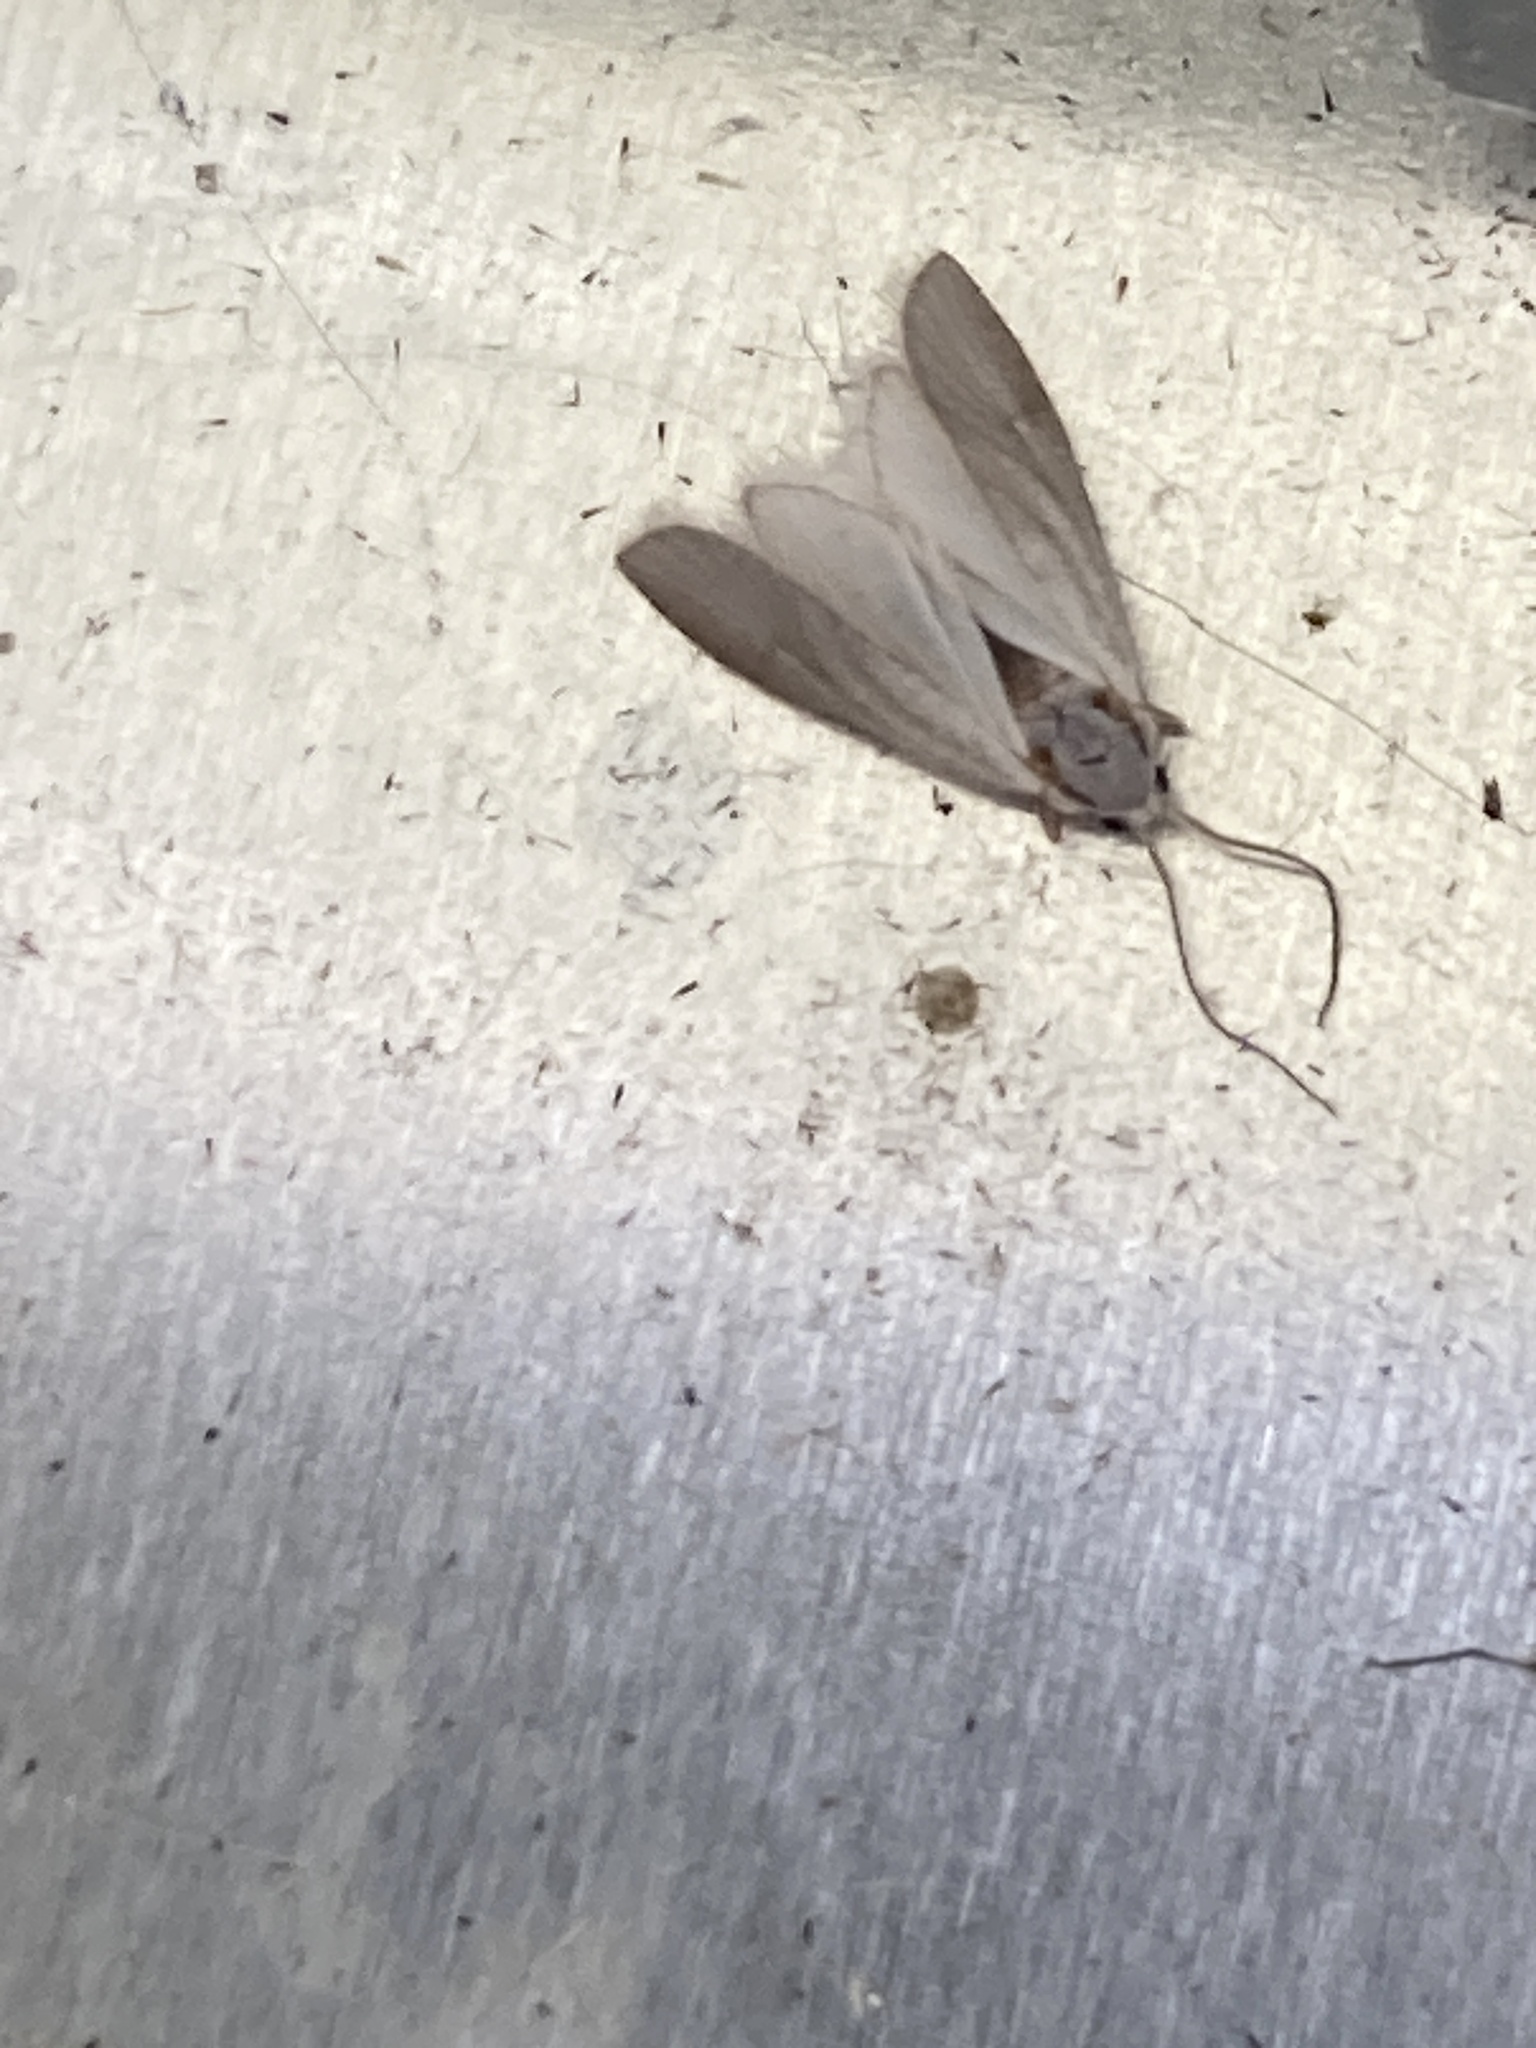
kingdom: Animalia
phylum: Arthropoda
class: Insecta
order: Lepidoptera
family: Crambidae
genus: Acentria
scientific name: Acentria ephemerella
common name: European water moth
